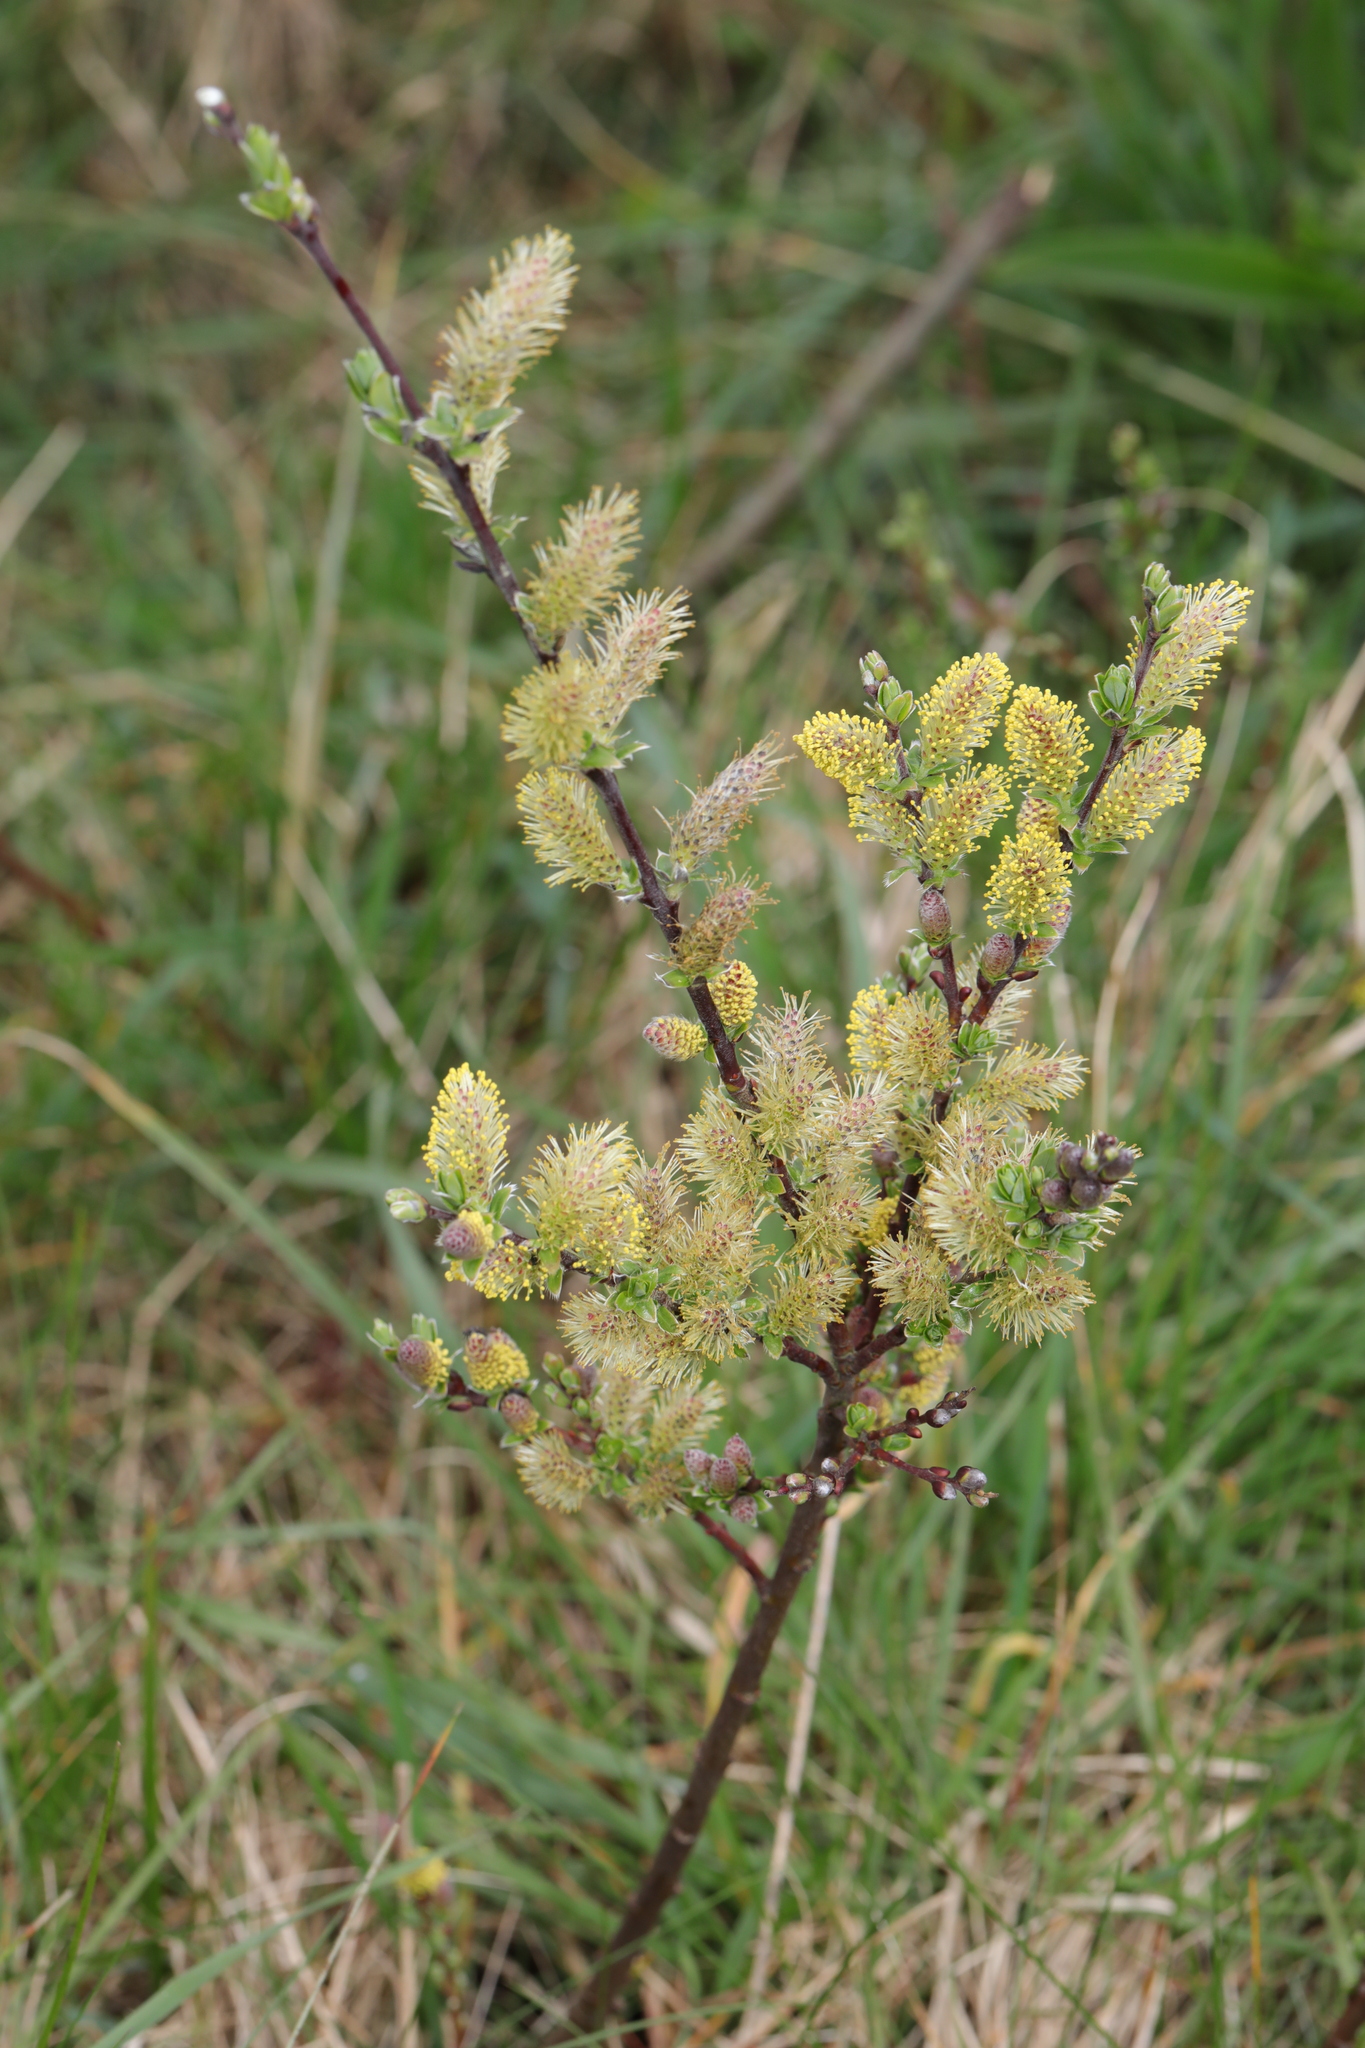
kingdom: Plantae
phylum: Tracheophyta
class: Magnoliopsida
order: Malpighiales
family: Salicaceae
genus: Salix
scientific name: Salix repens
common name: Creeping willow
